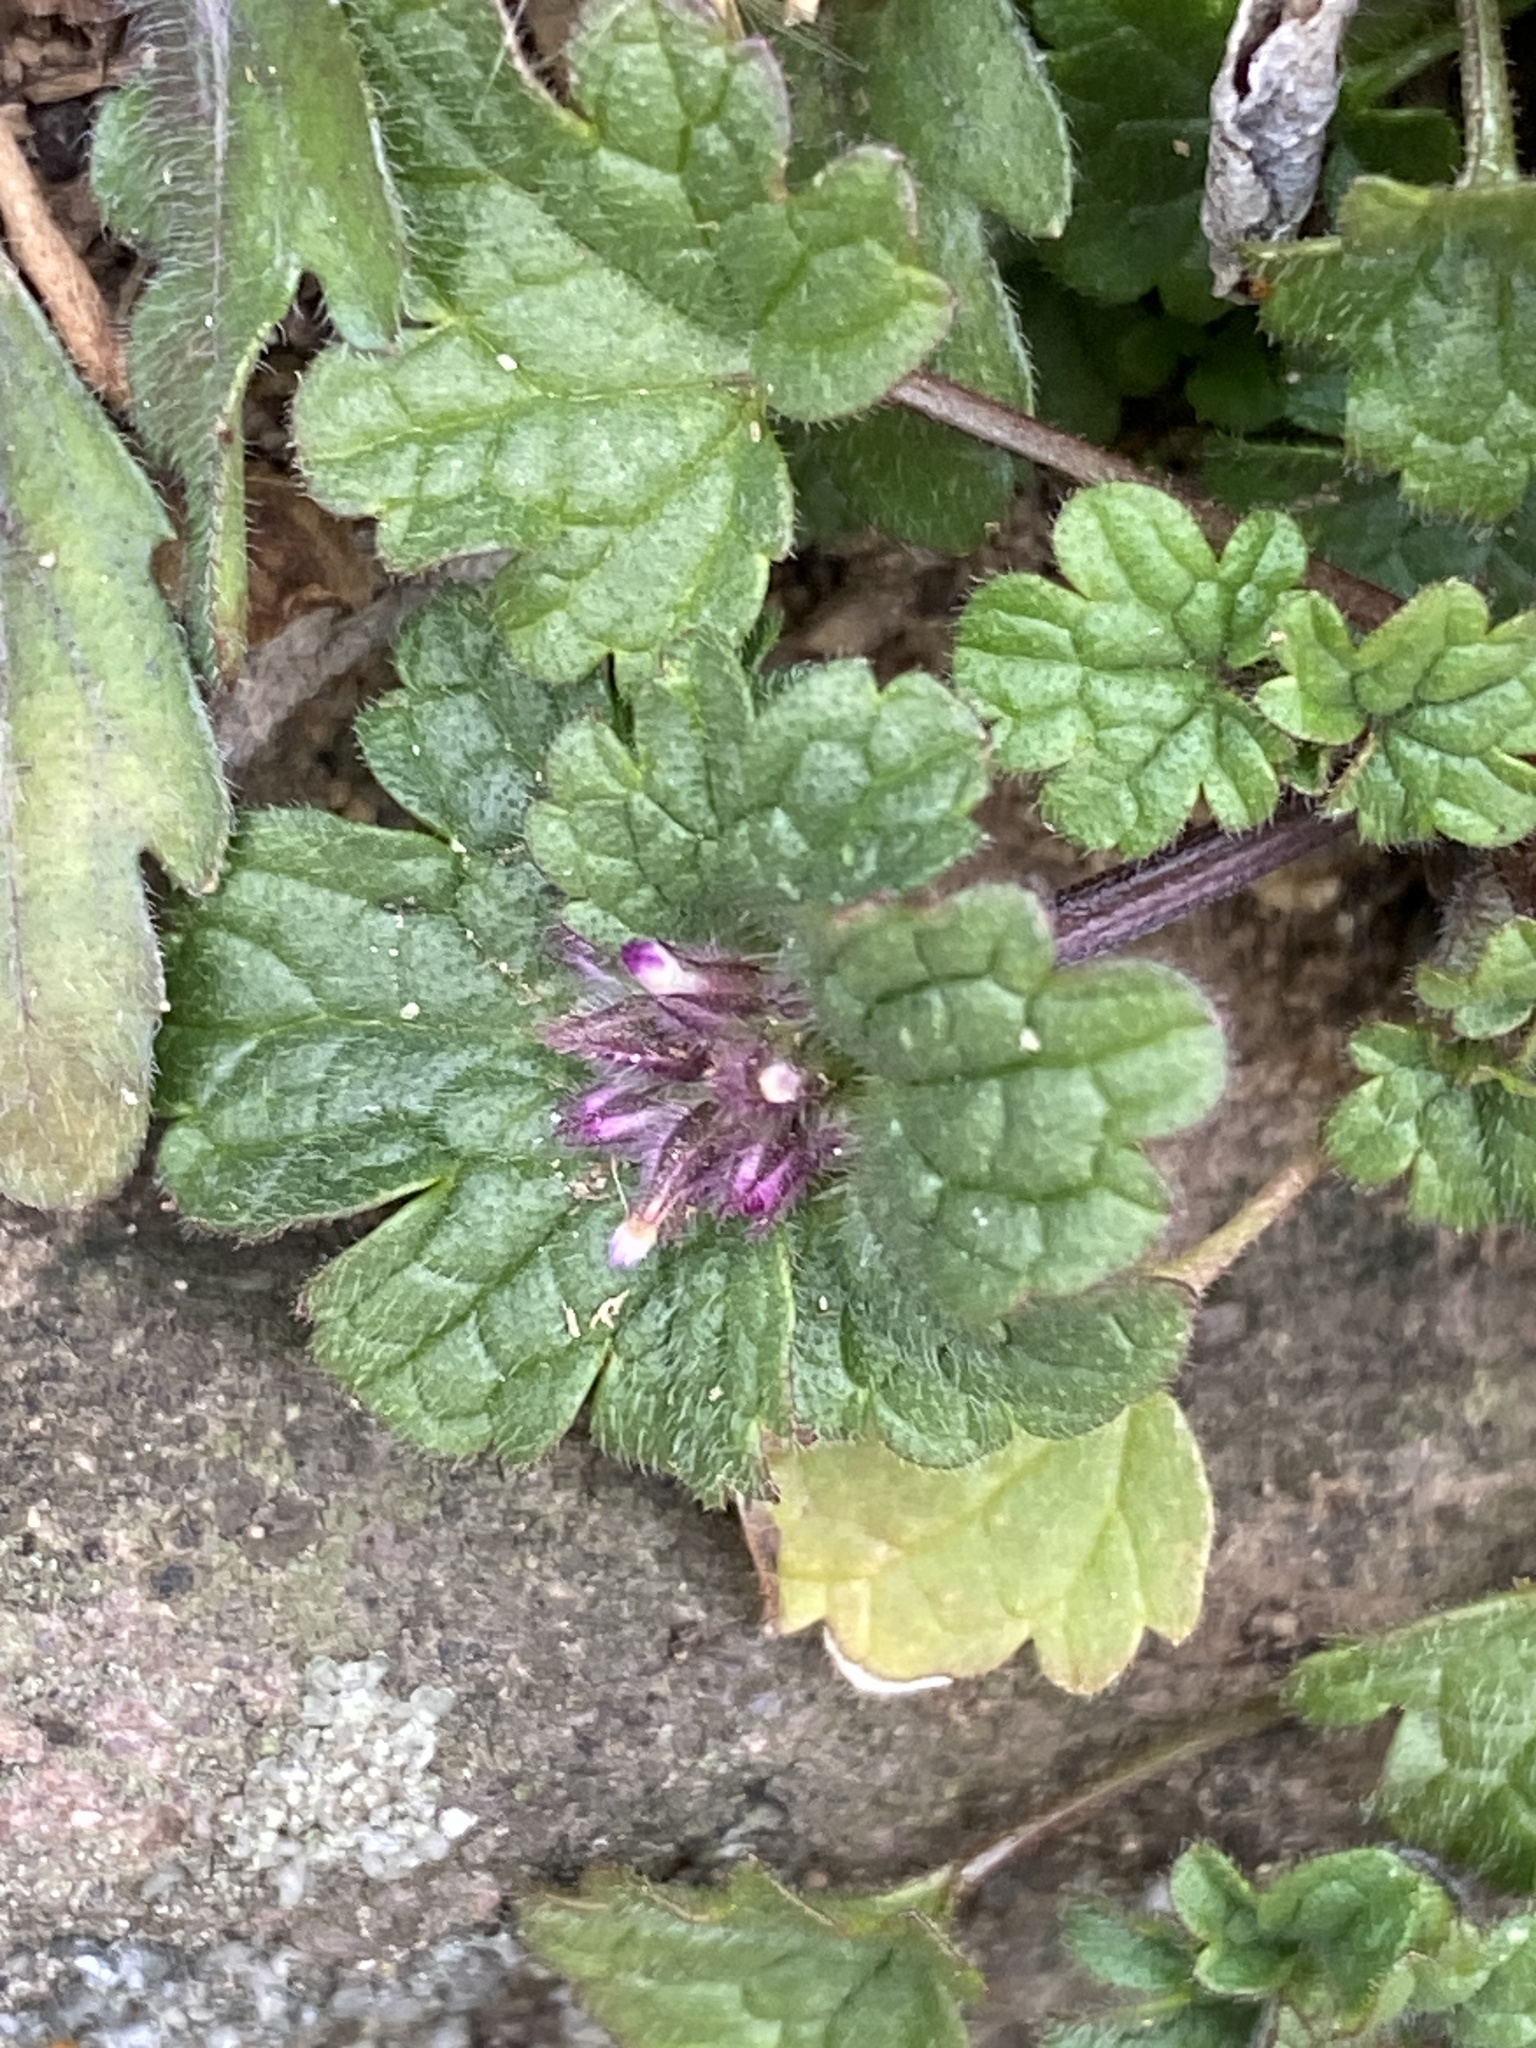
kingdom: Plantae
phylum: Tracheophyta
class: Magnoliopsida
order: Lamiales
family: Lamiaceae
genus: Lamium
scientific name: Lamium amplexicaule
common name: Henbit dead-nettle
